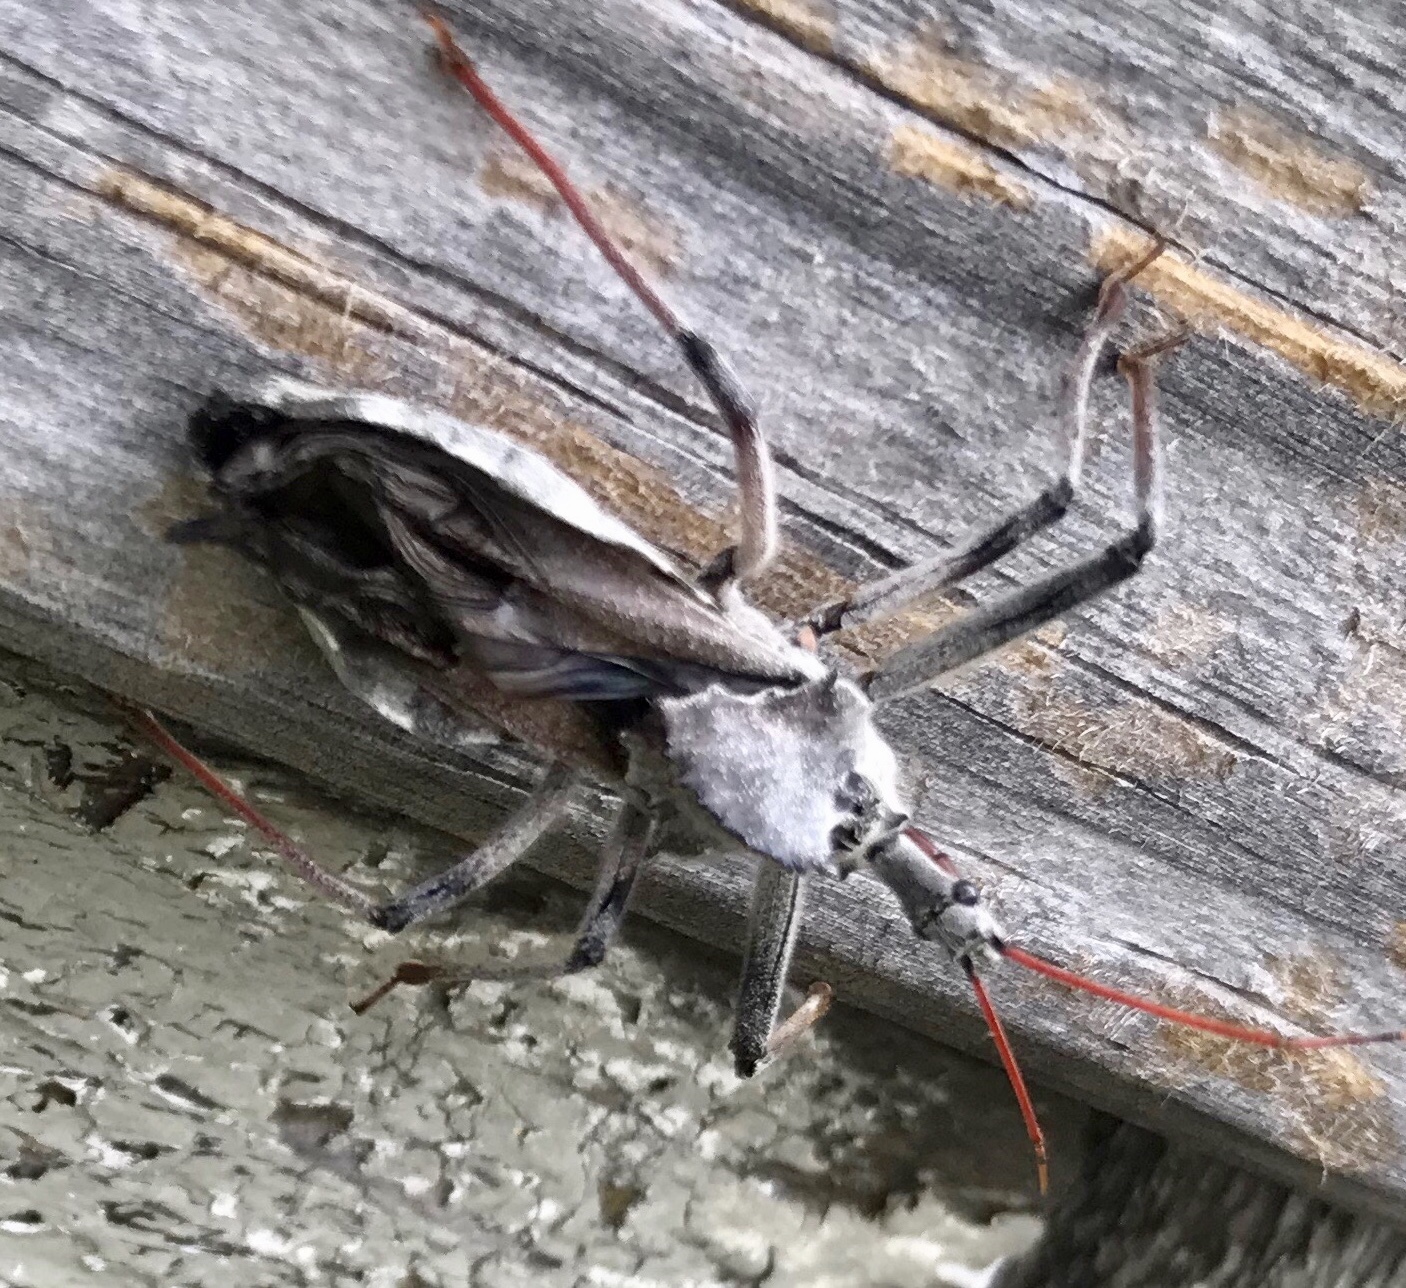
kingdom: Animalia
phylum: Arthropoda
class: Insecta
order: Hemiptera
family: Reduviidae
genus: Arilus
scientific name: Arilus cristatus
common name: North american wheel bug
